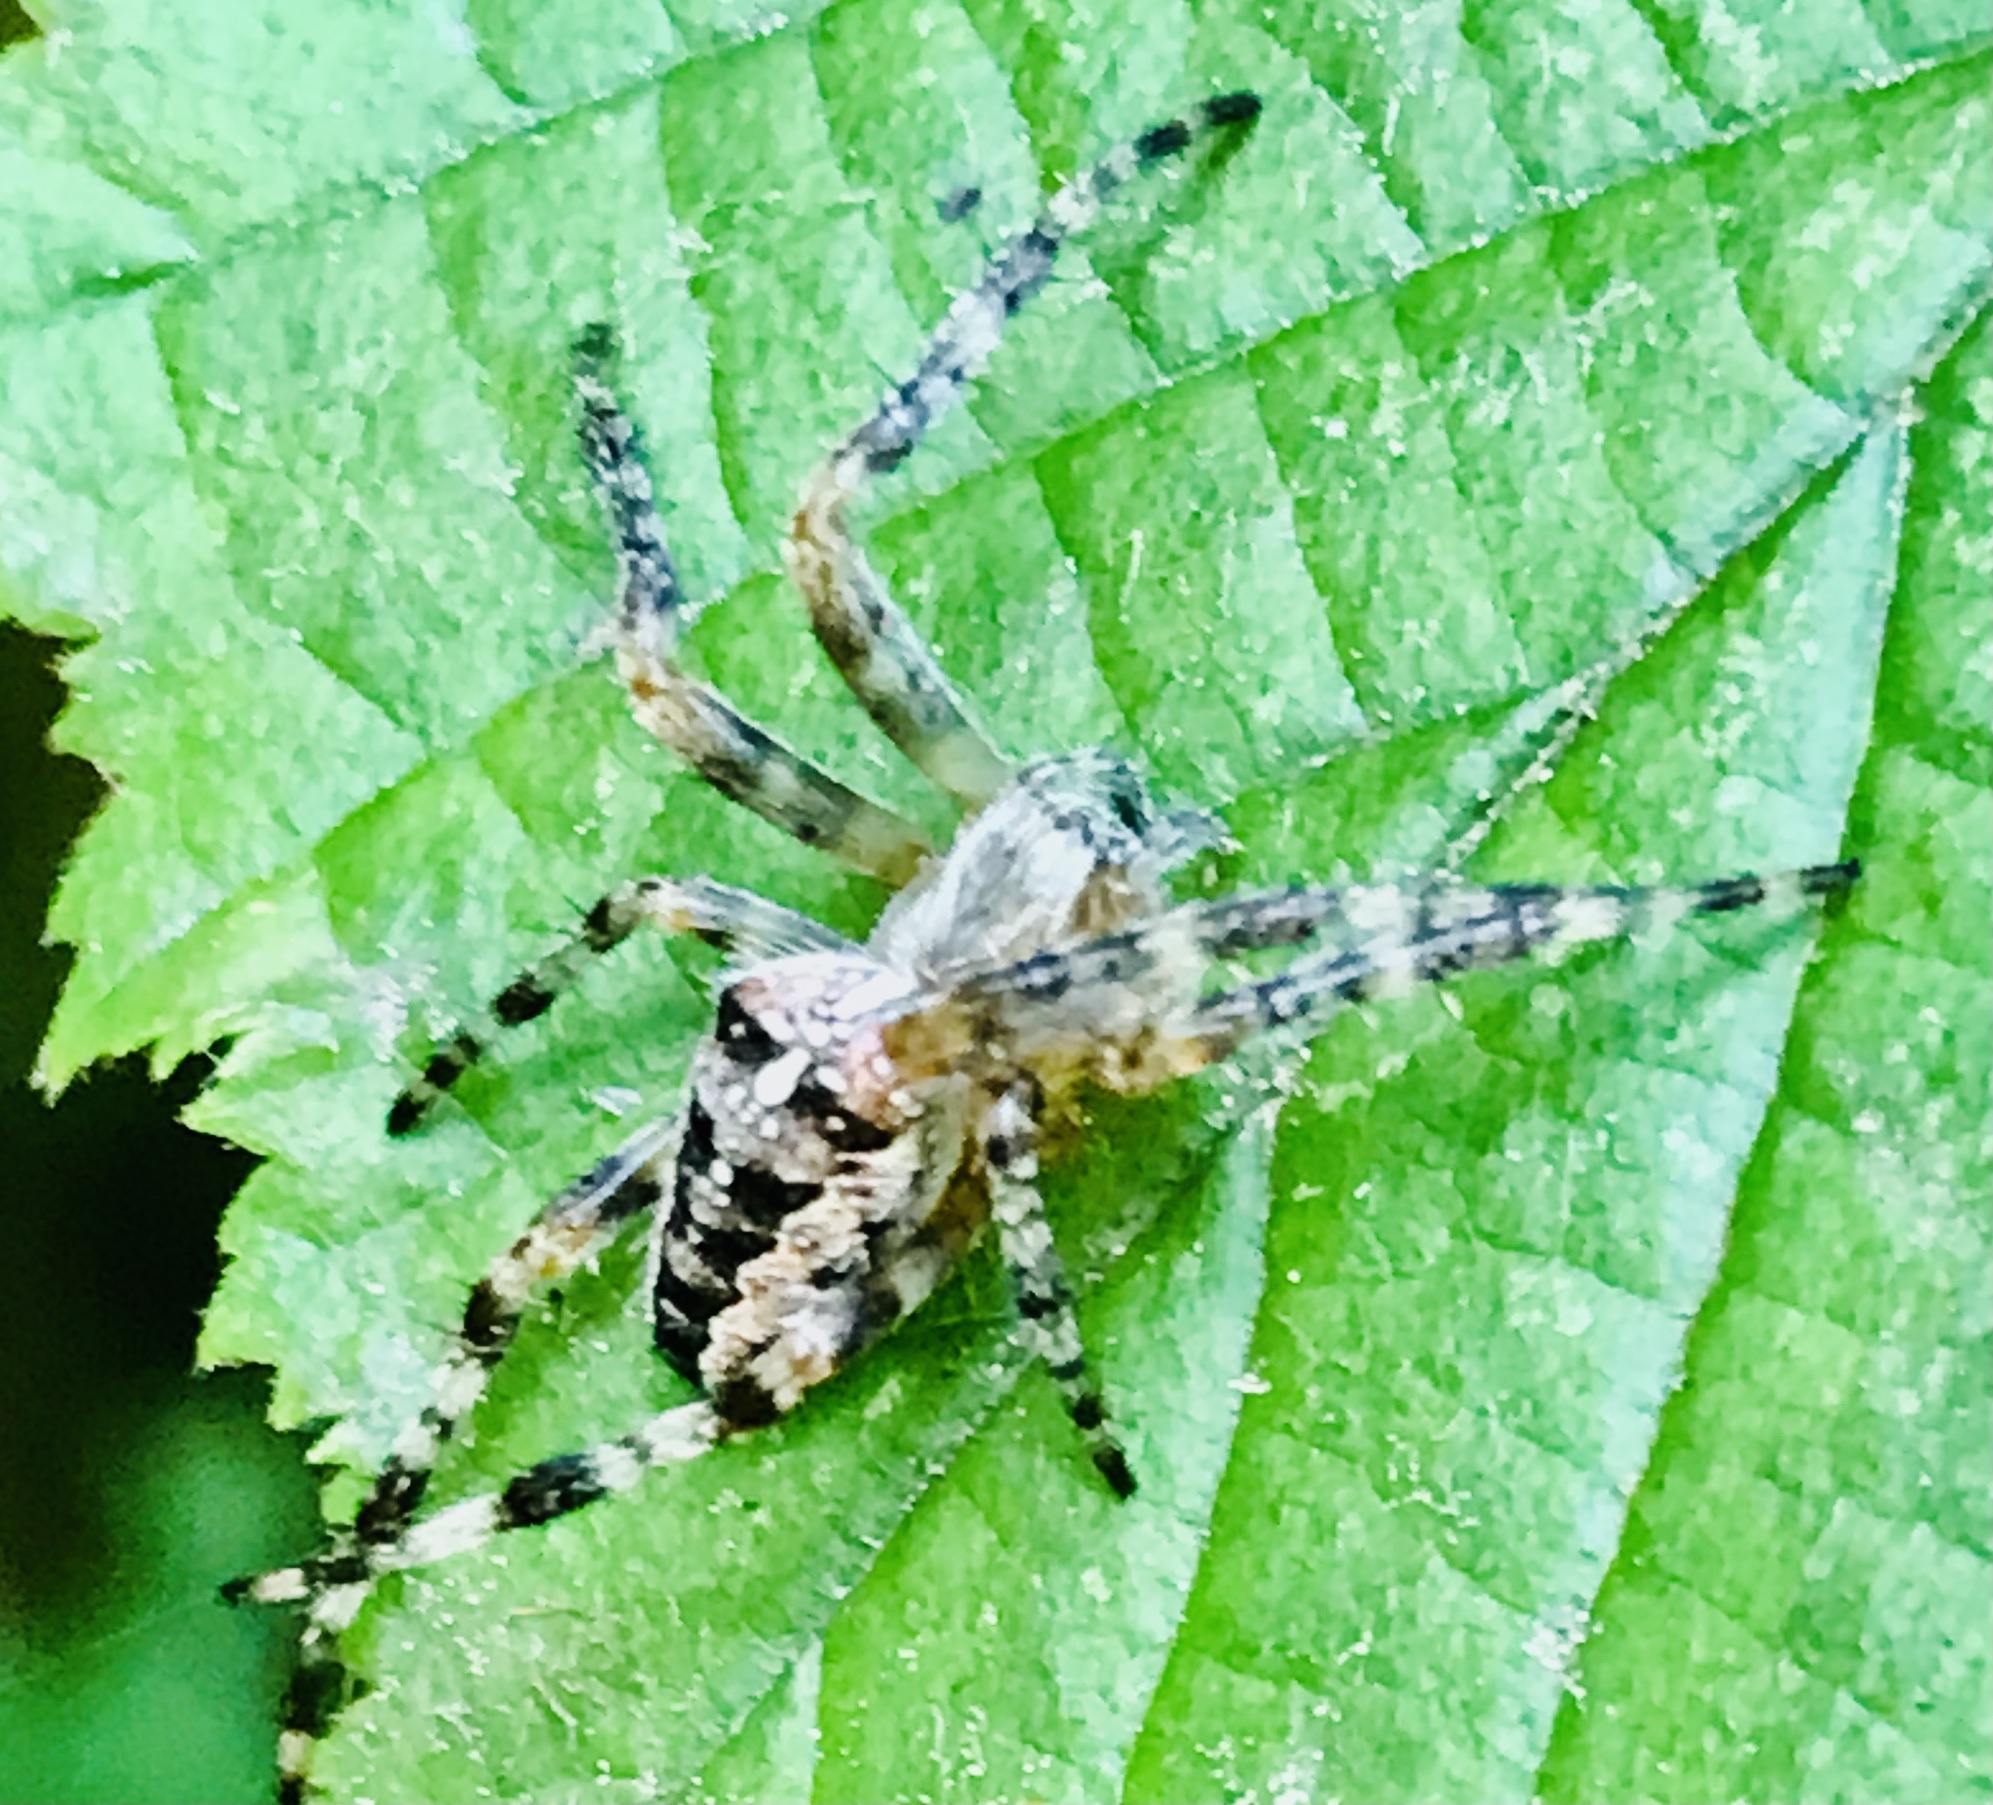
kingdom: Animalia
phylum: Arthropoda
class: Arachnida
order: Araneae
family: Araneidae
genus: Araneus
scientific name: Araneus diadematus
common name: Cross orbweaver
